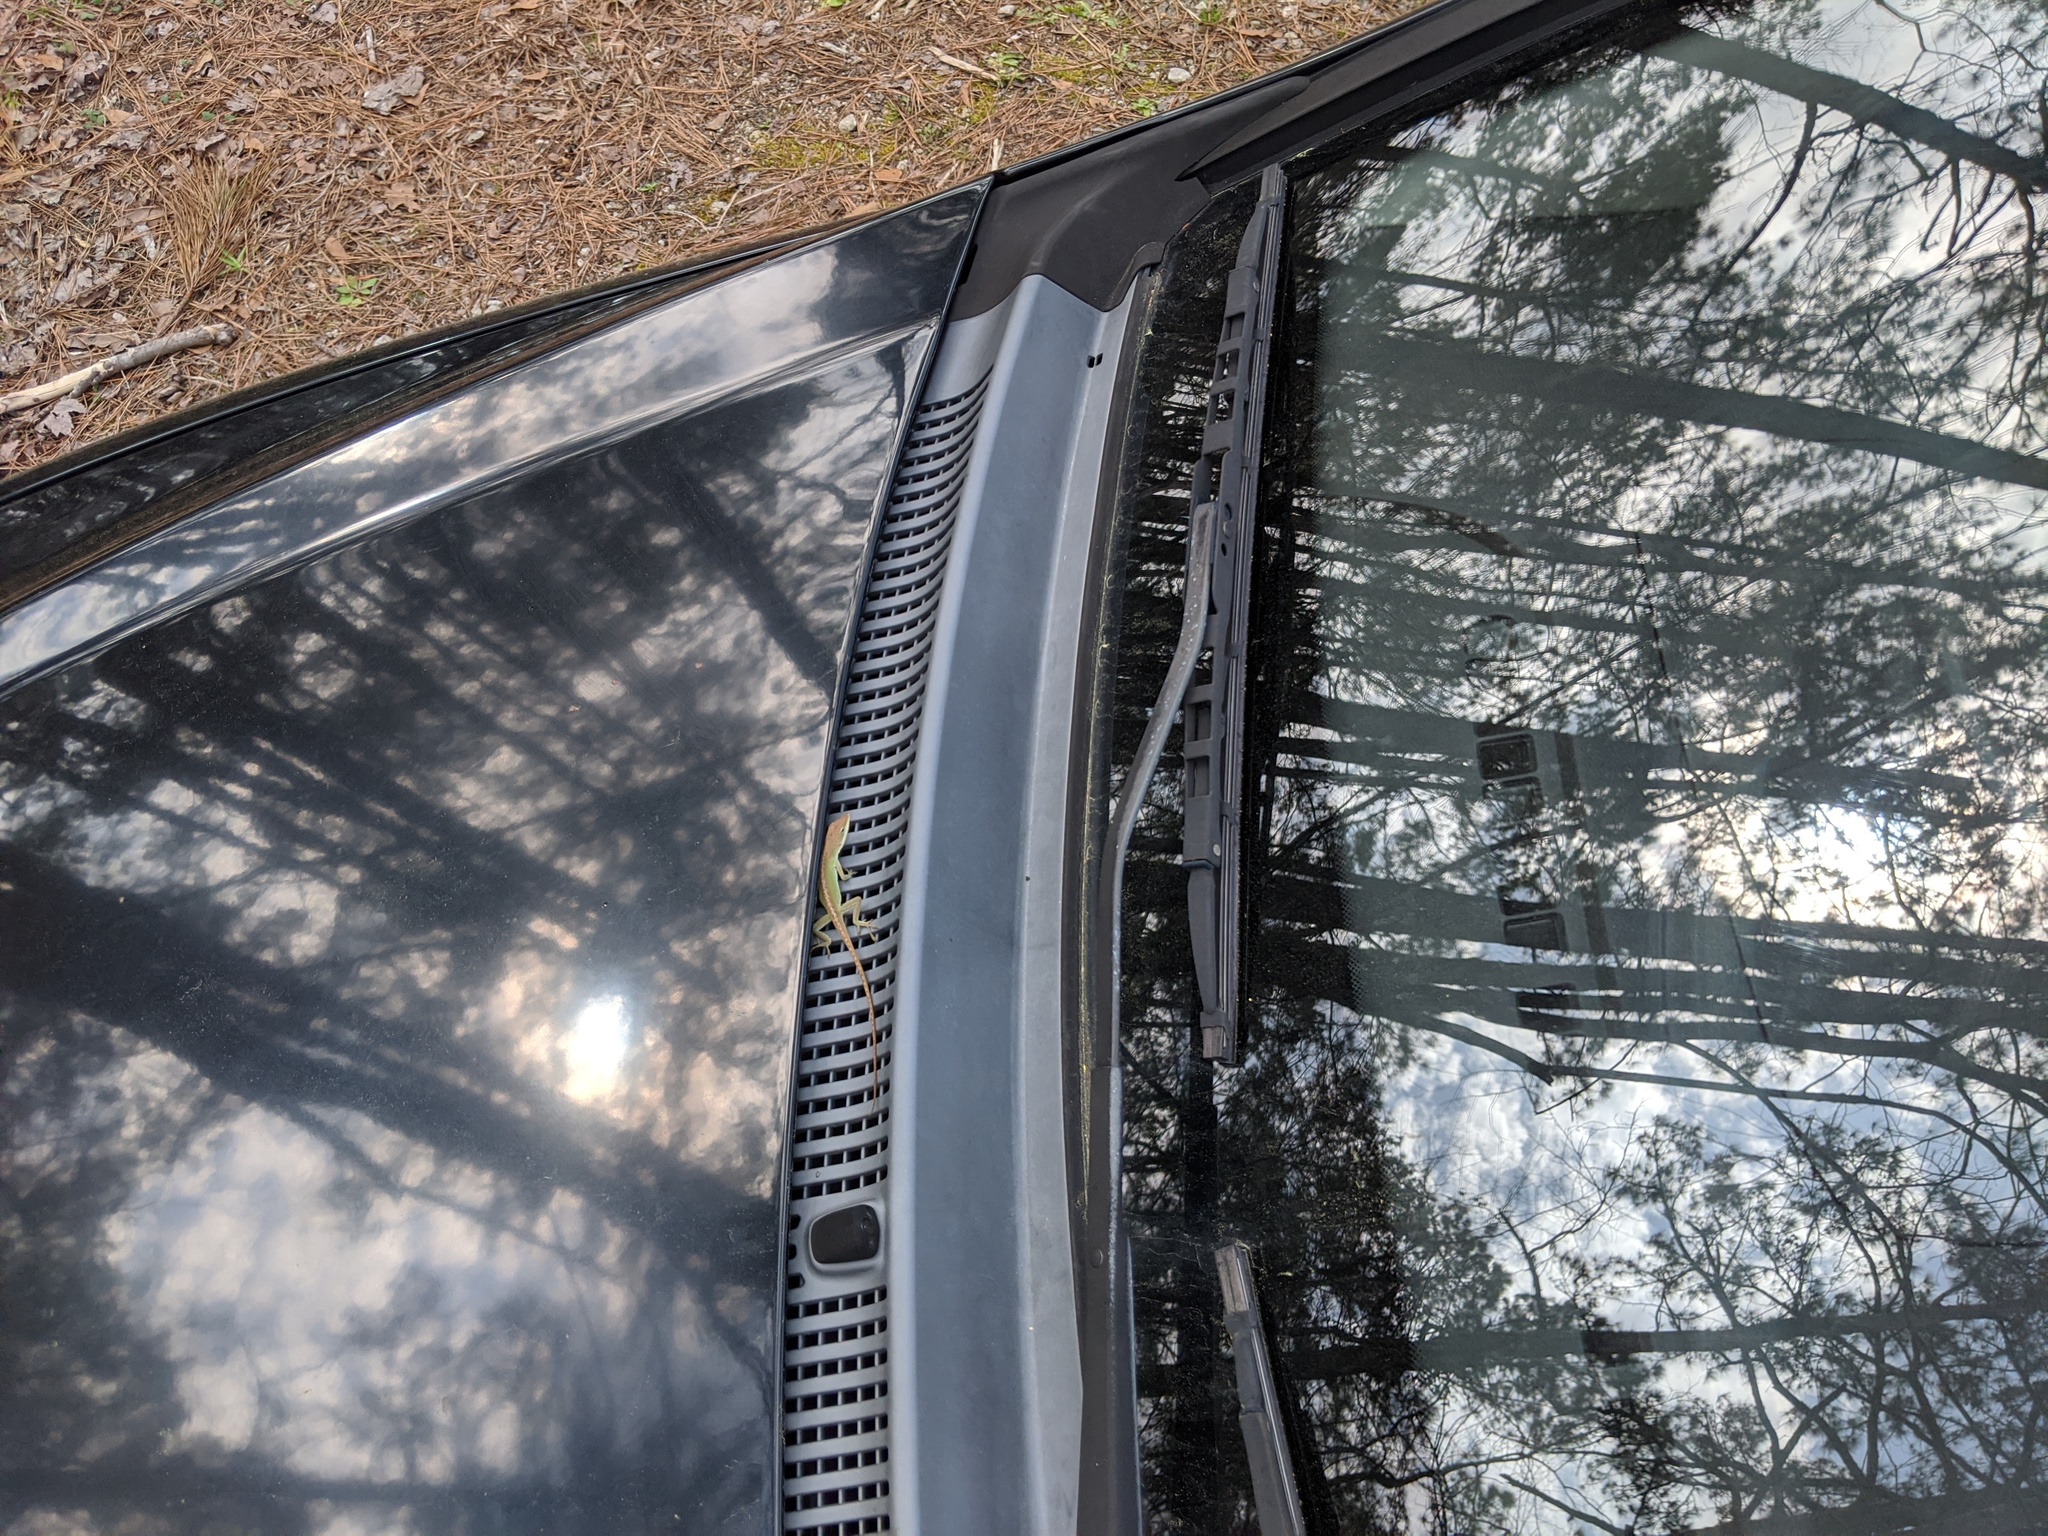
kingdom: Animalia
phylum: Chordata
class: Squamata
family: Dactyloidae
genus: Anolis
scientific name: Anolis carolinensis
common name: Green anole
